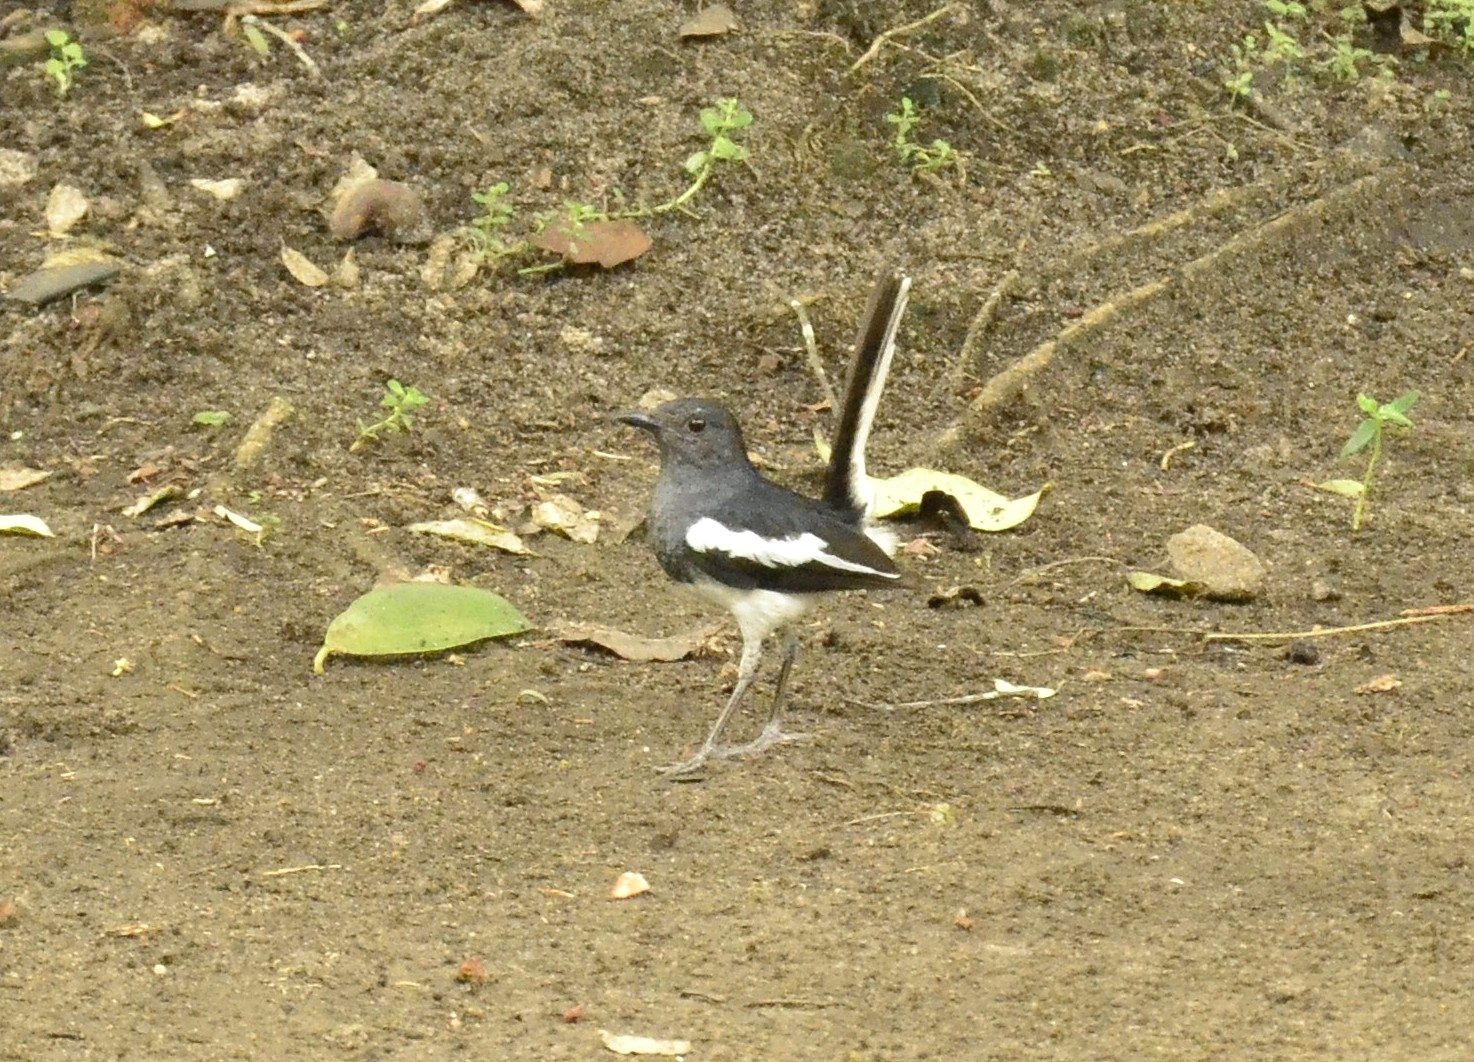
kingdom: Animalia
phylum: Chordata
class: Aves
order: Passeriformes
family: Muscicapidae
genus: Copsychus
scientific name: Copsychus saularis
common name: Oriental magpie-robin
